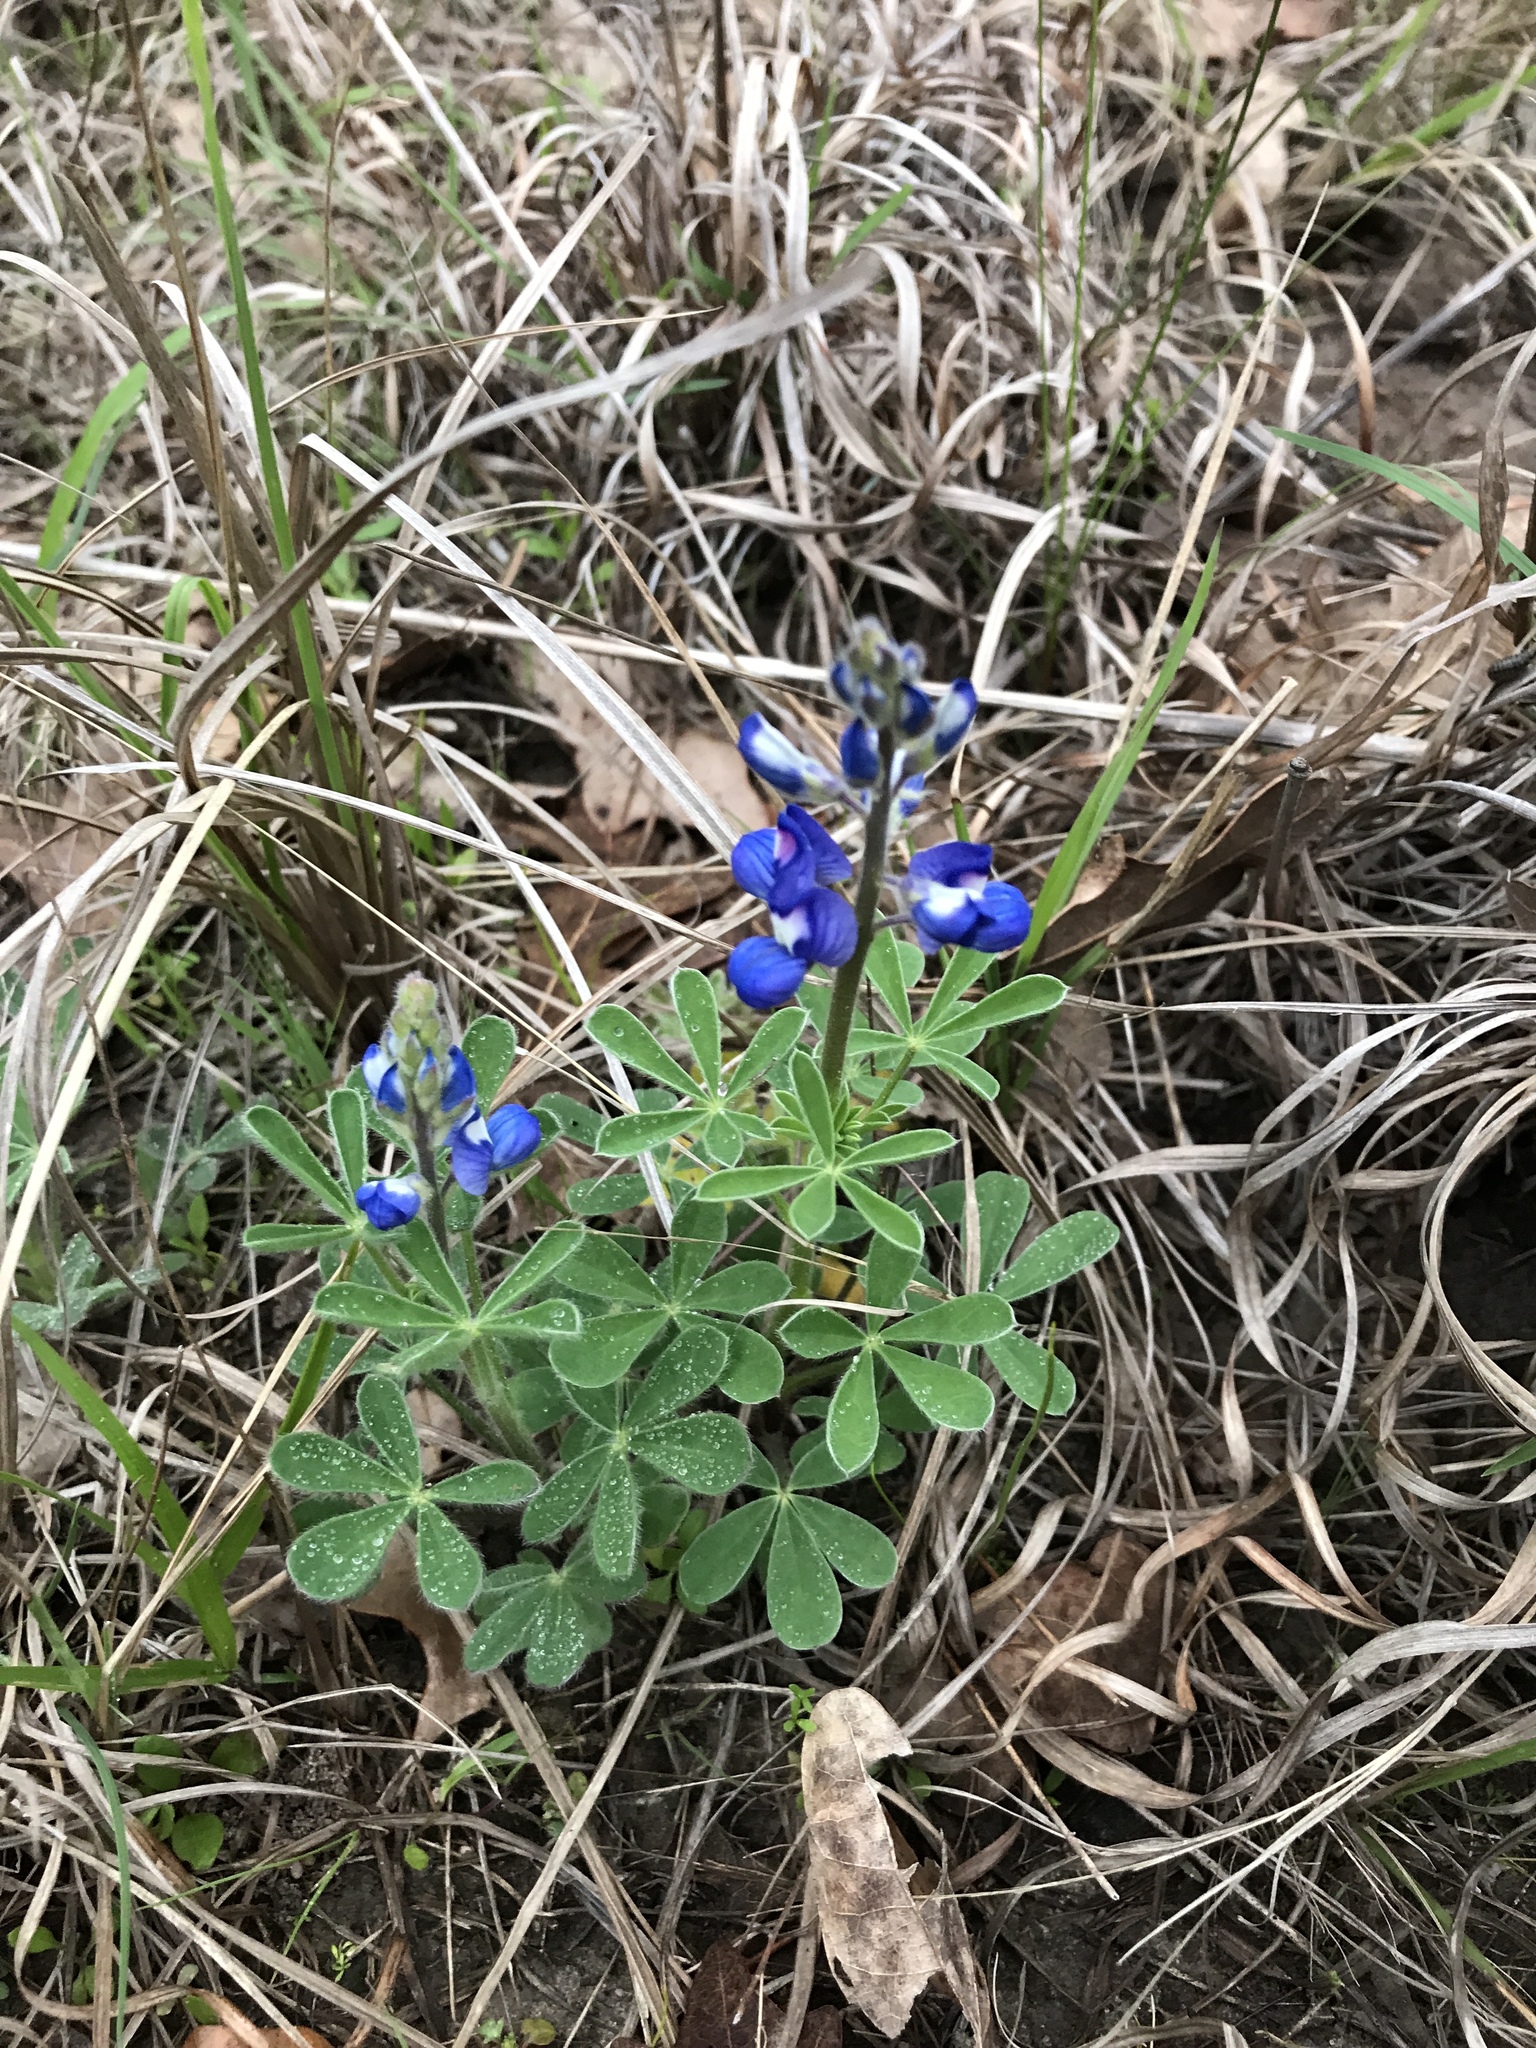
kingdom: Plantae
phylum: Tracheophyta
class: Magnoliopsida
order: Fabales
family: Fabaceae
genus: Lupinus
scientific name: Lupinus subcarnosus
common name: Texas bluebonnet
